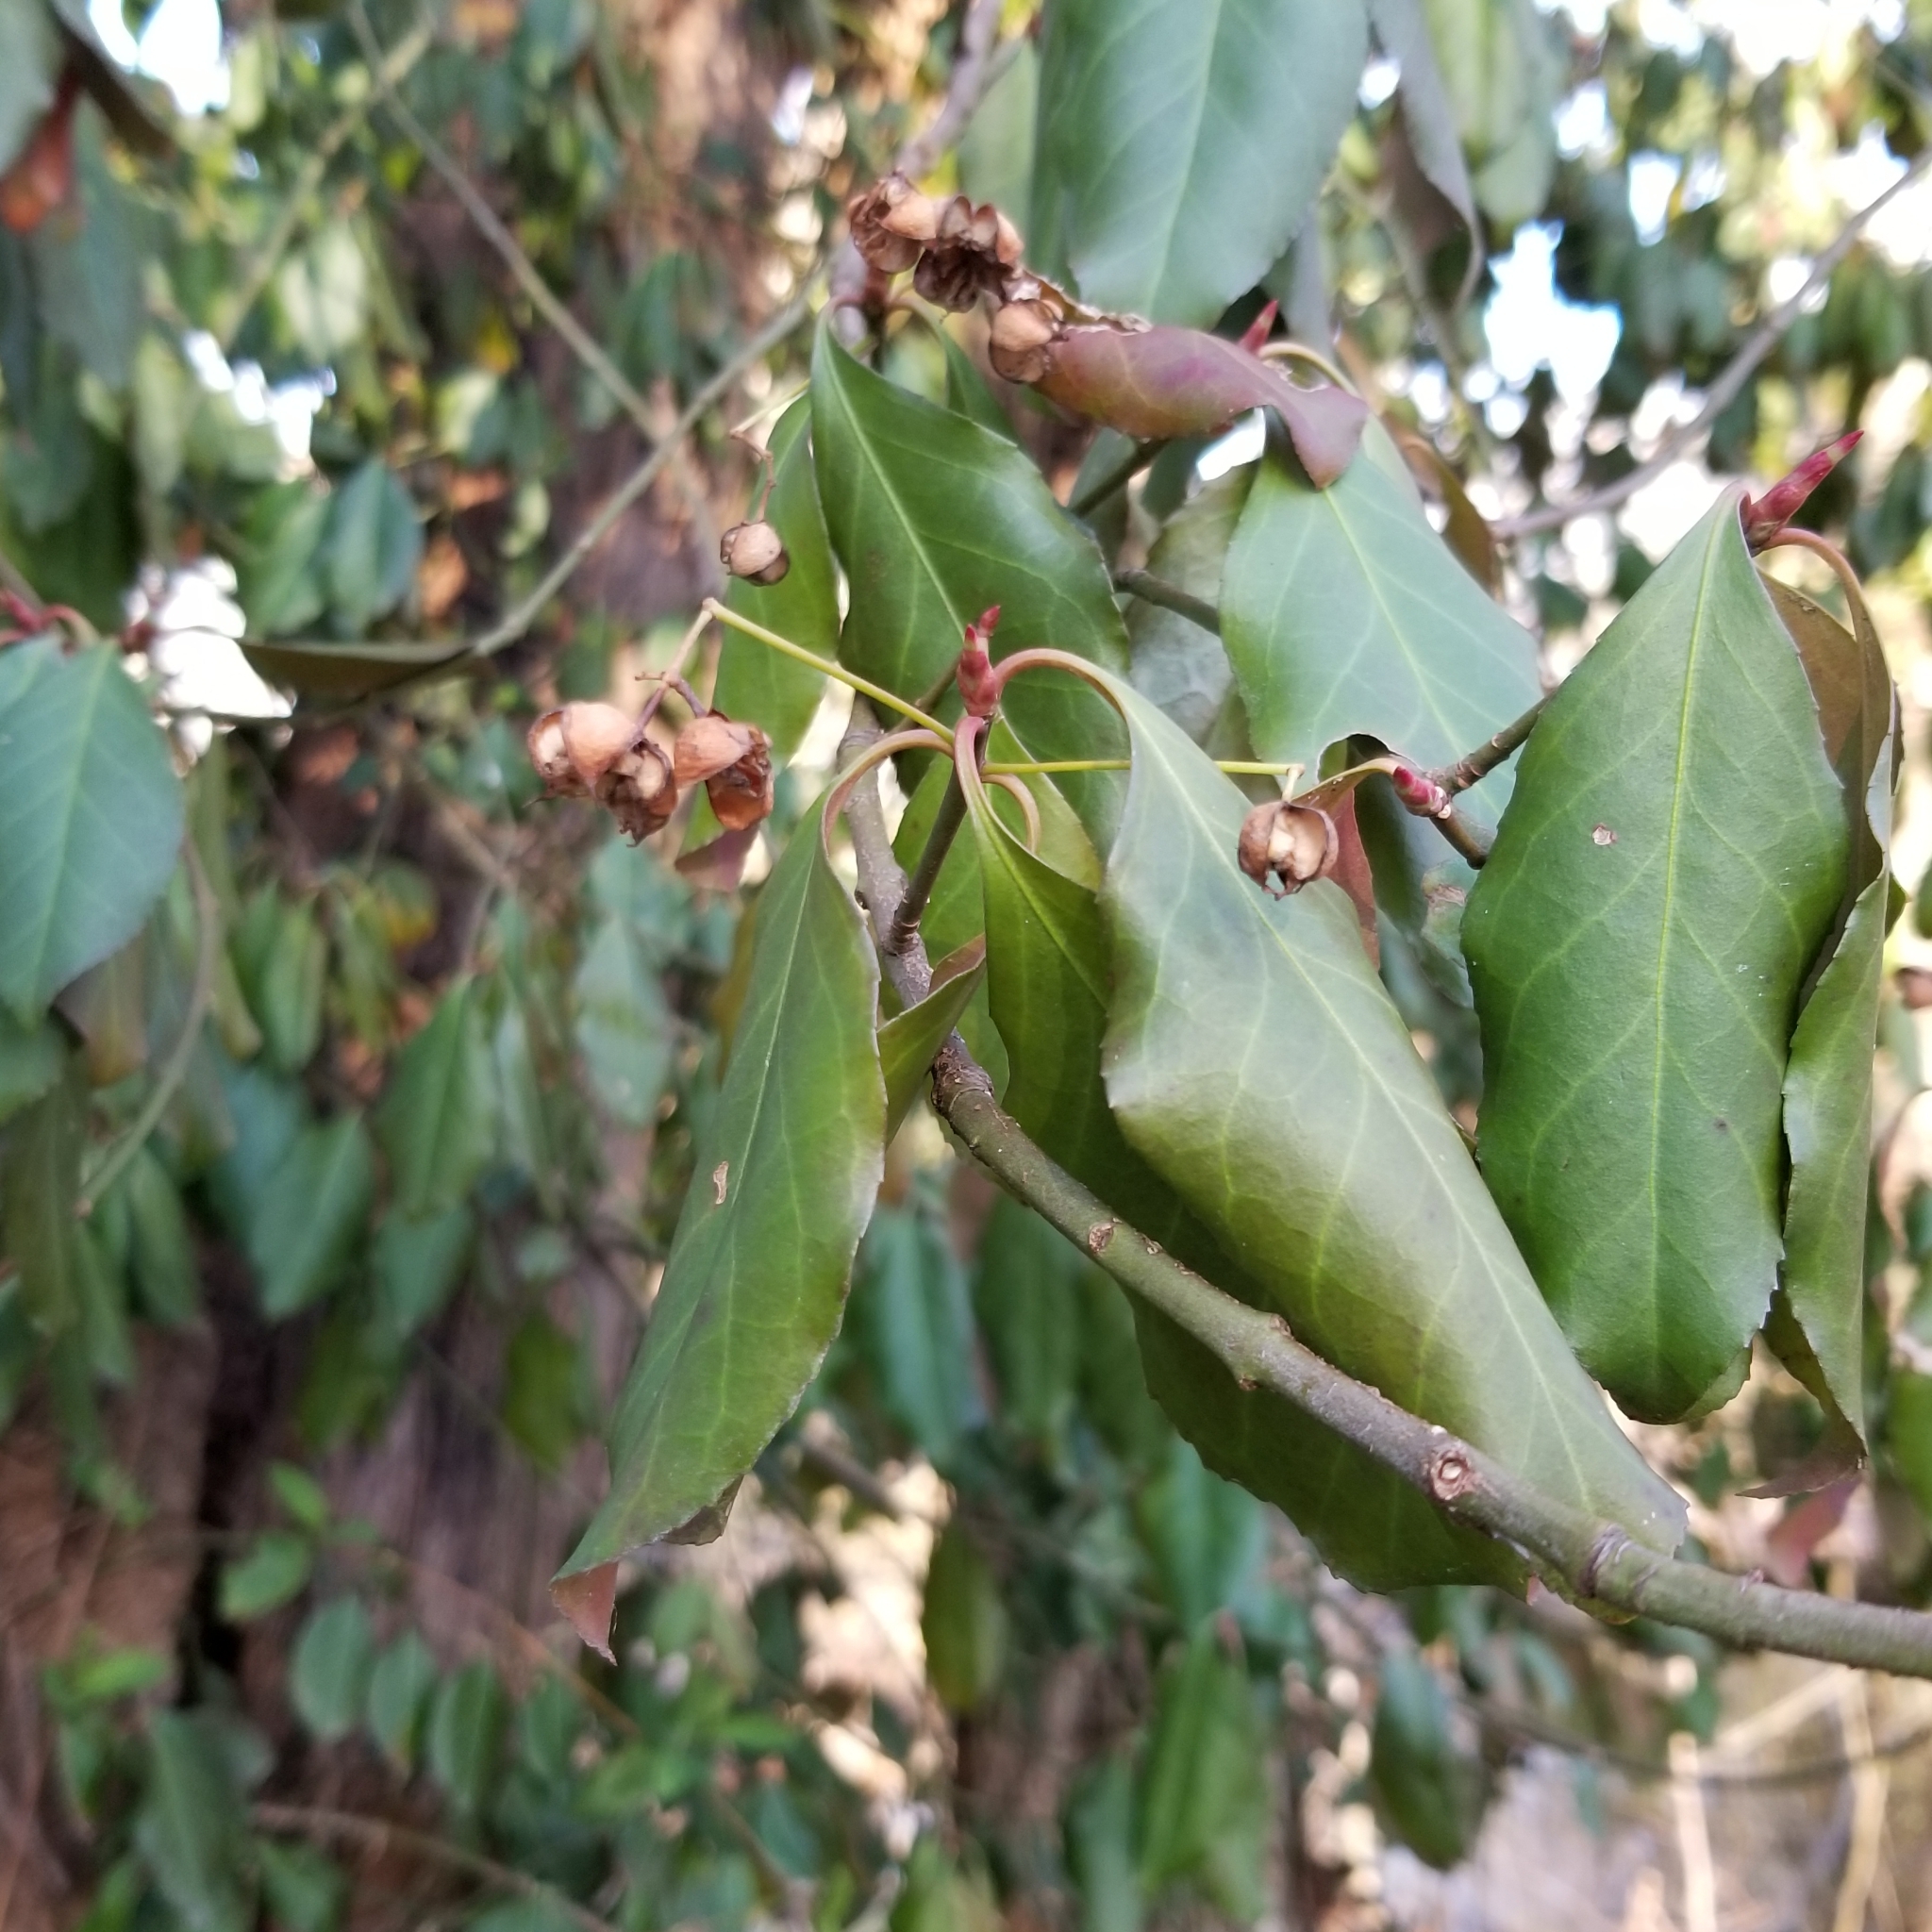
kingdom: Plantae
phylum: Tracheophyta
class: Magnoliopsida
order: Celastrales
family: Celastraceae
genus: Euonymus
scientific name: Euonymus fortunei
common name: Climbing euonymus
